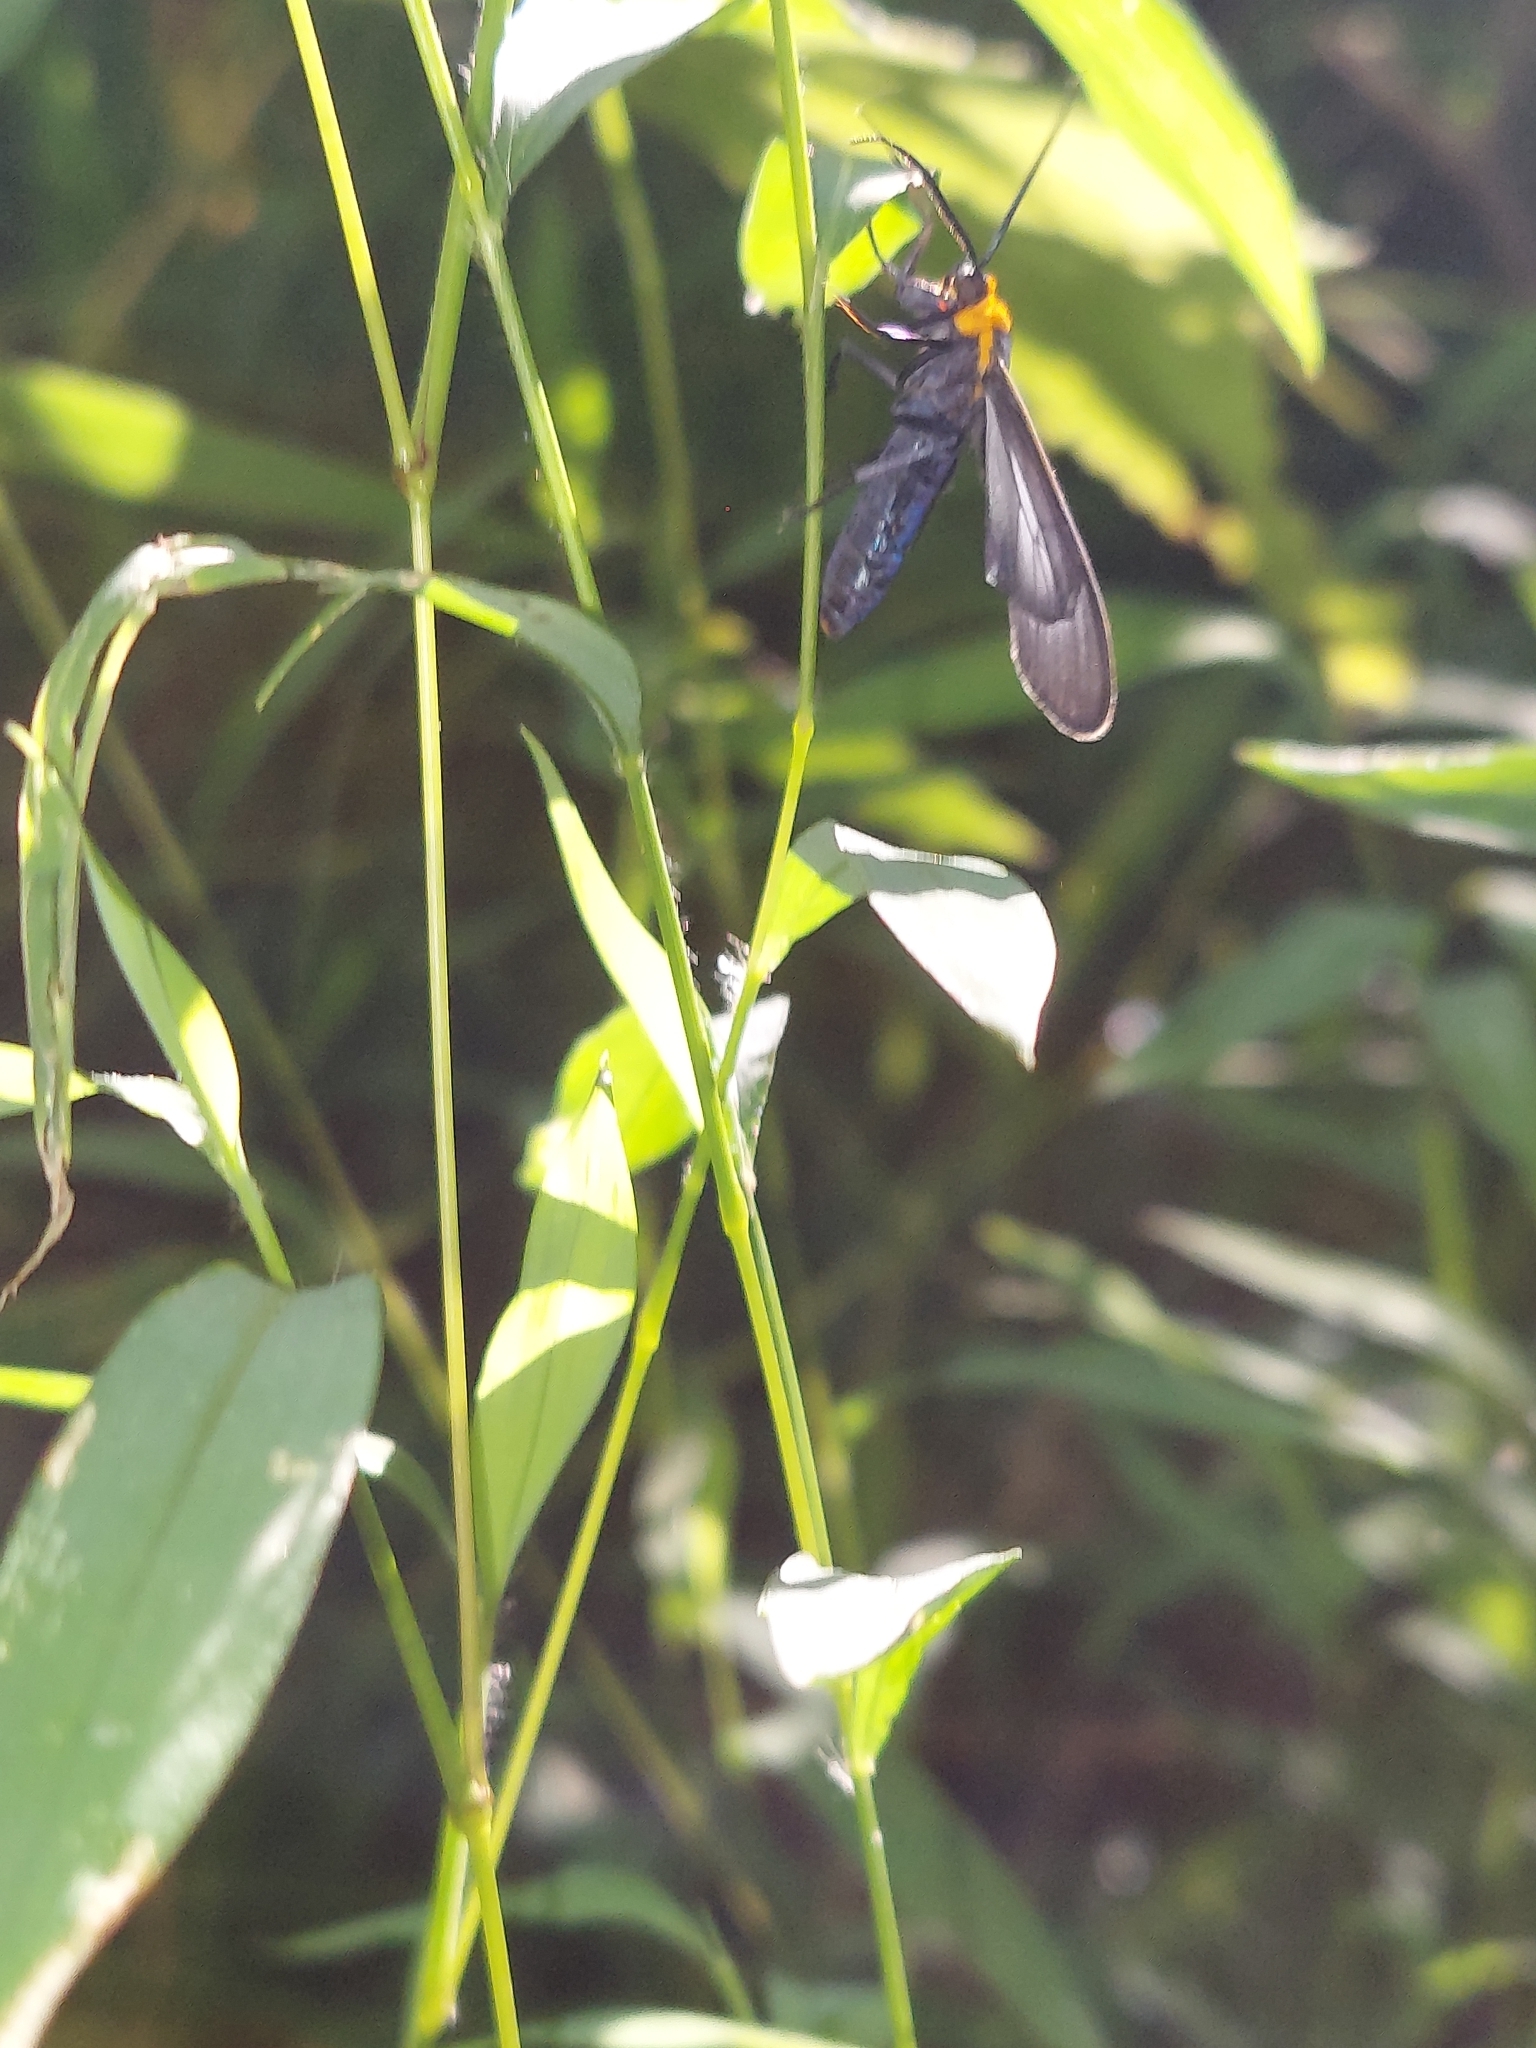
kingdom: Animalia
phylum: Arthropoda
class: Insecta
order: Lepidoptera
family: Erebidae
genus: Cisseps
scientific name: Cisseps fulvicollis
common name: Yellow-collared scape moth
